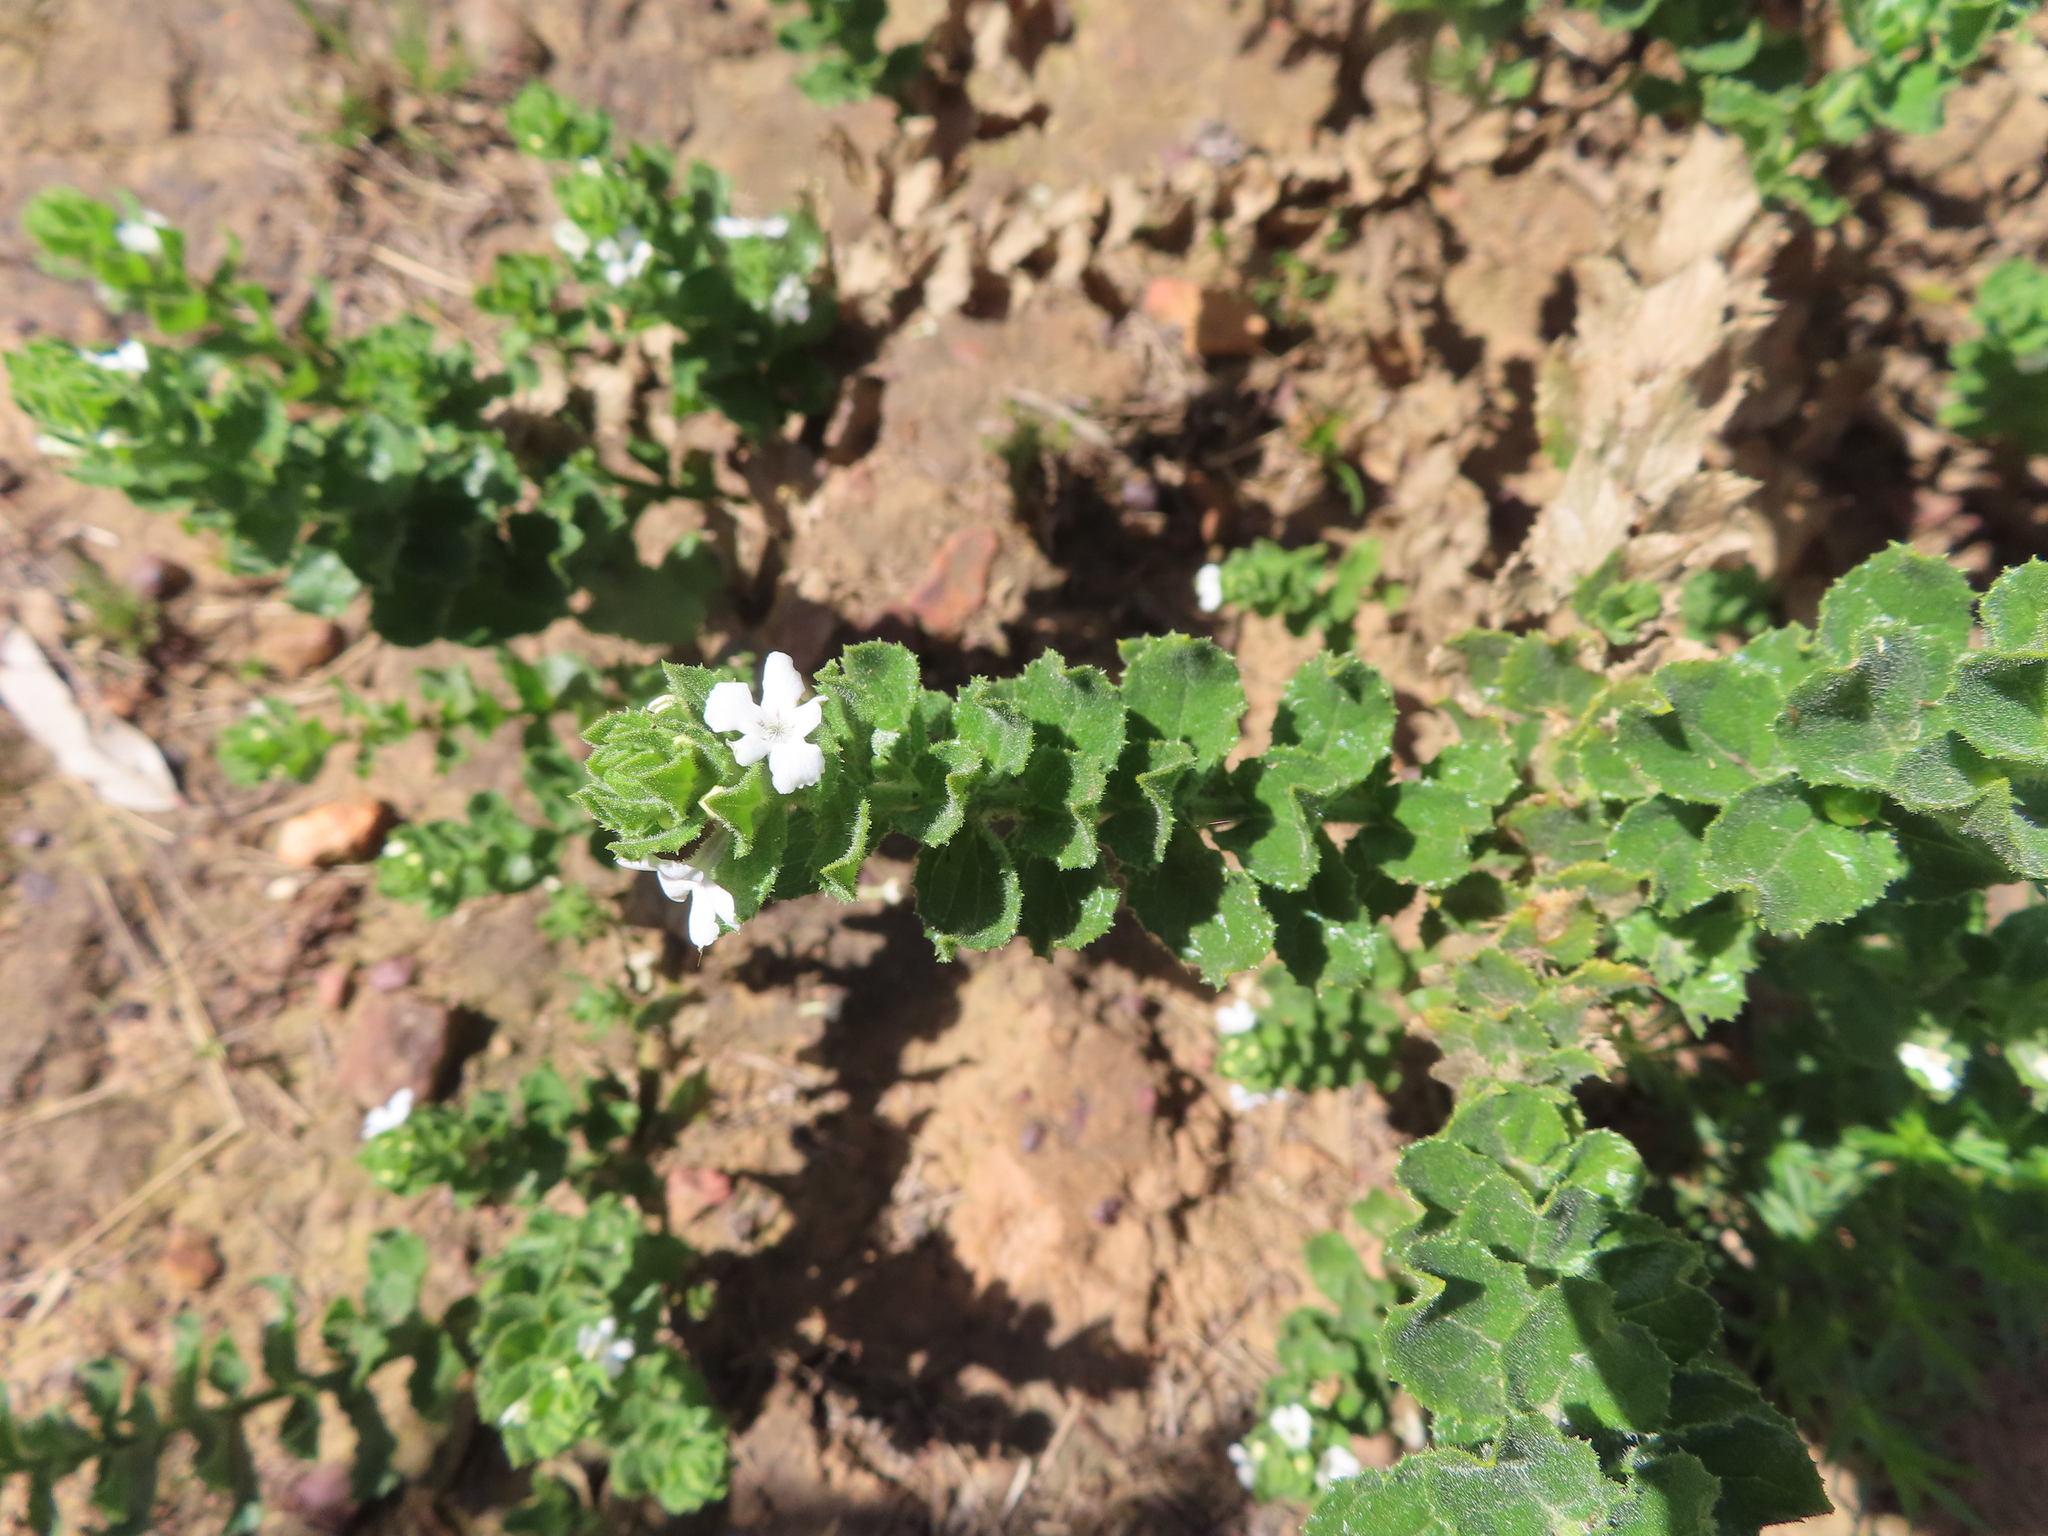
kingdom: Plantae
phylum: Tracheophyta
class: Magnoliopsida
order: Lamiales
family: Scrophulariaceae
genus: Oftia
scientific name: Oftia africana
